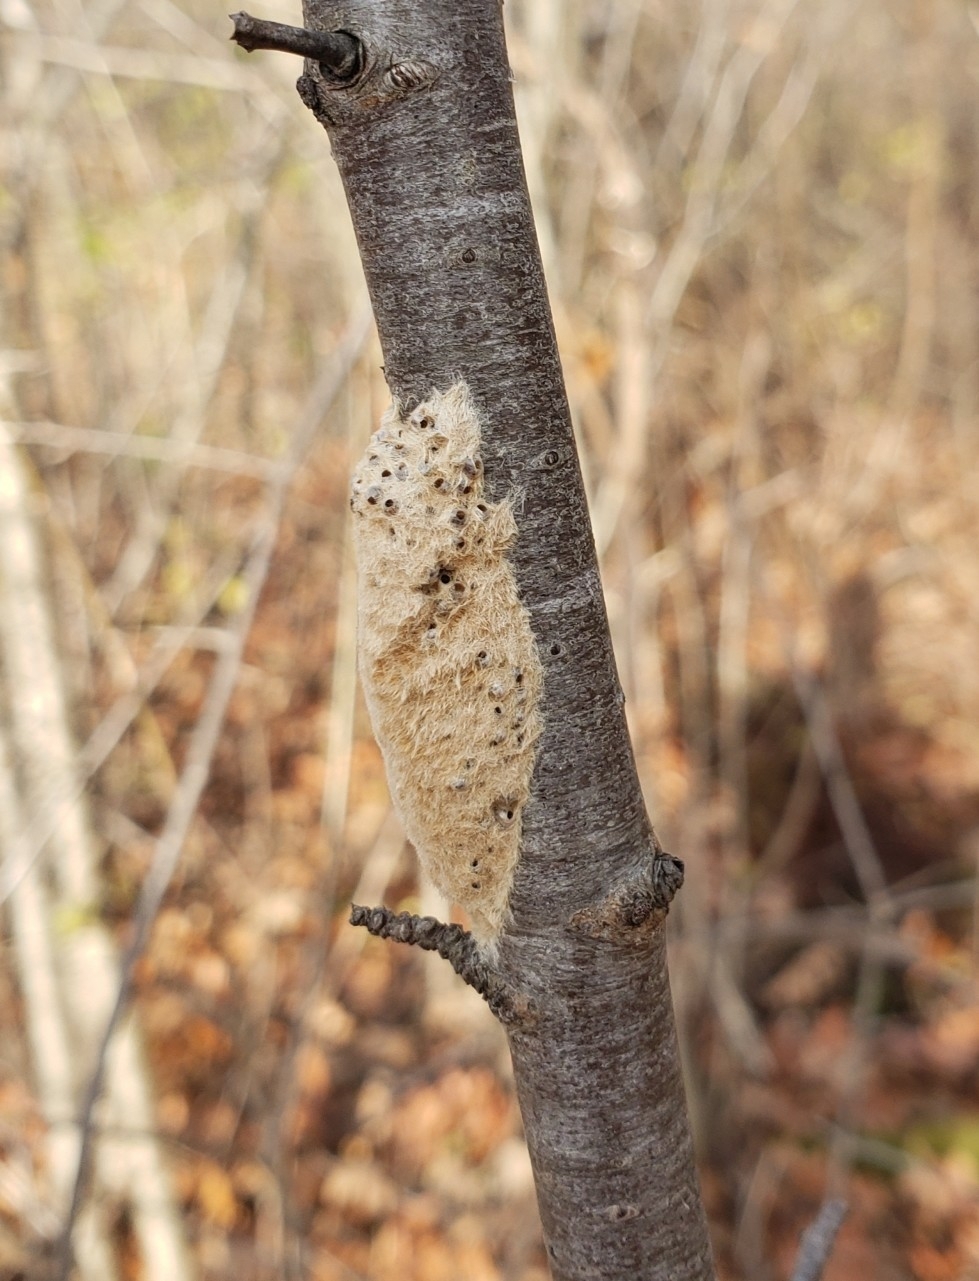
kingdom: Animalia
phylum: Arthropoda
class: Insecta
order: Lepidoptera
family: Erebidae
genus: Lymantria
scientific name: Lymantria dispar
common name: Gypsy moth
